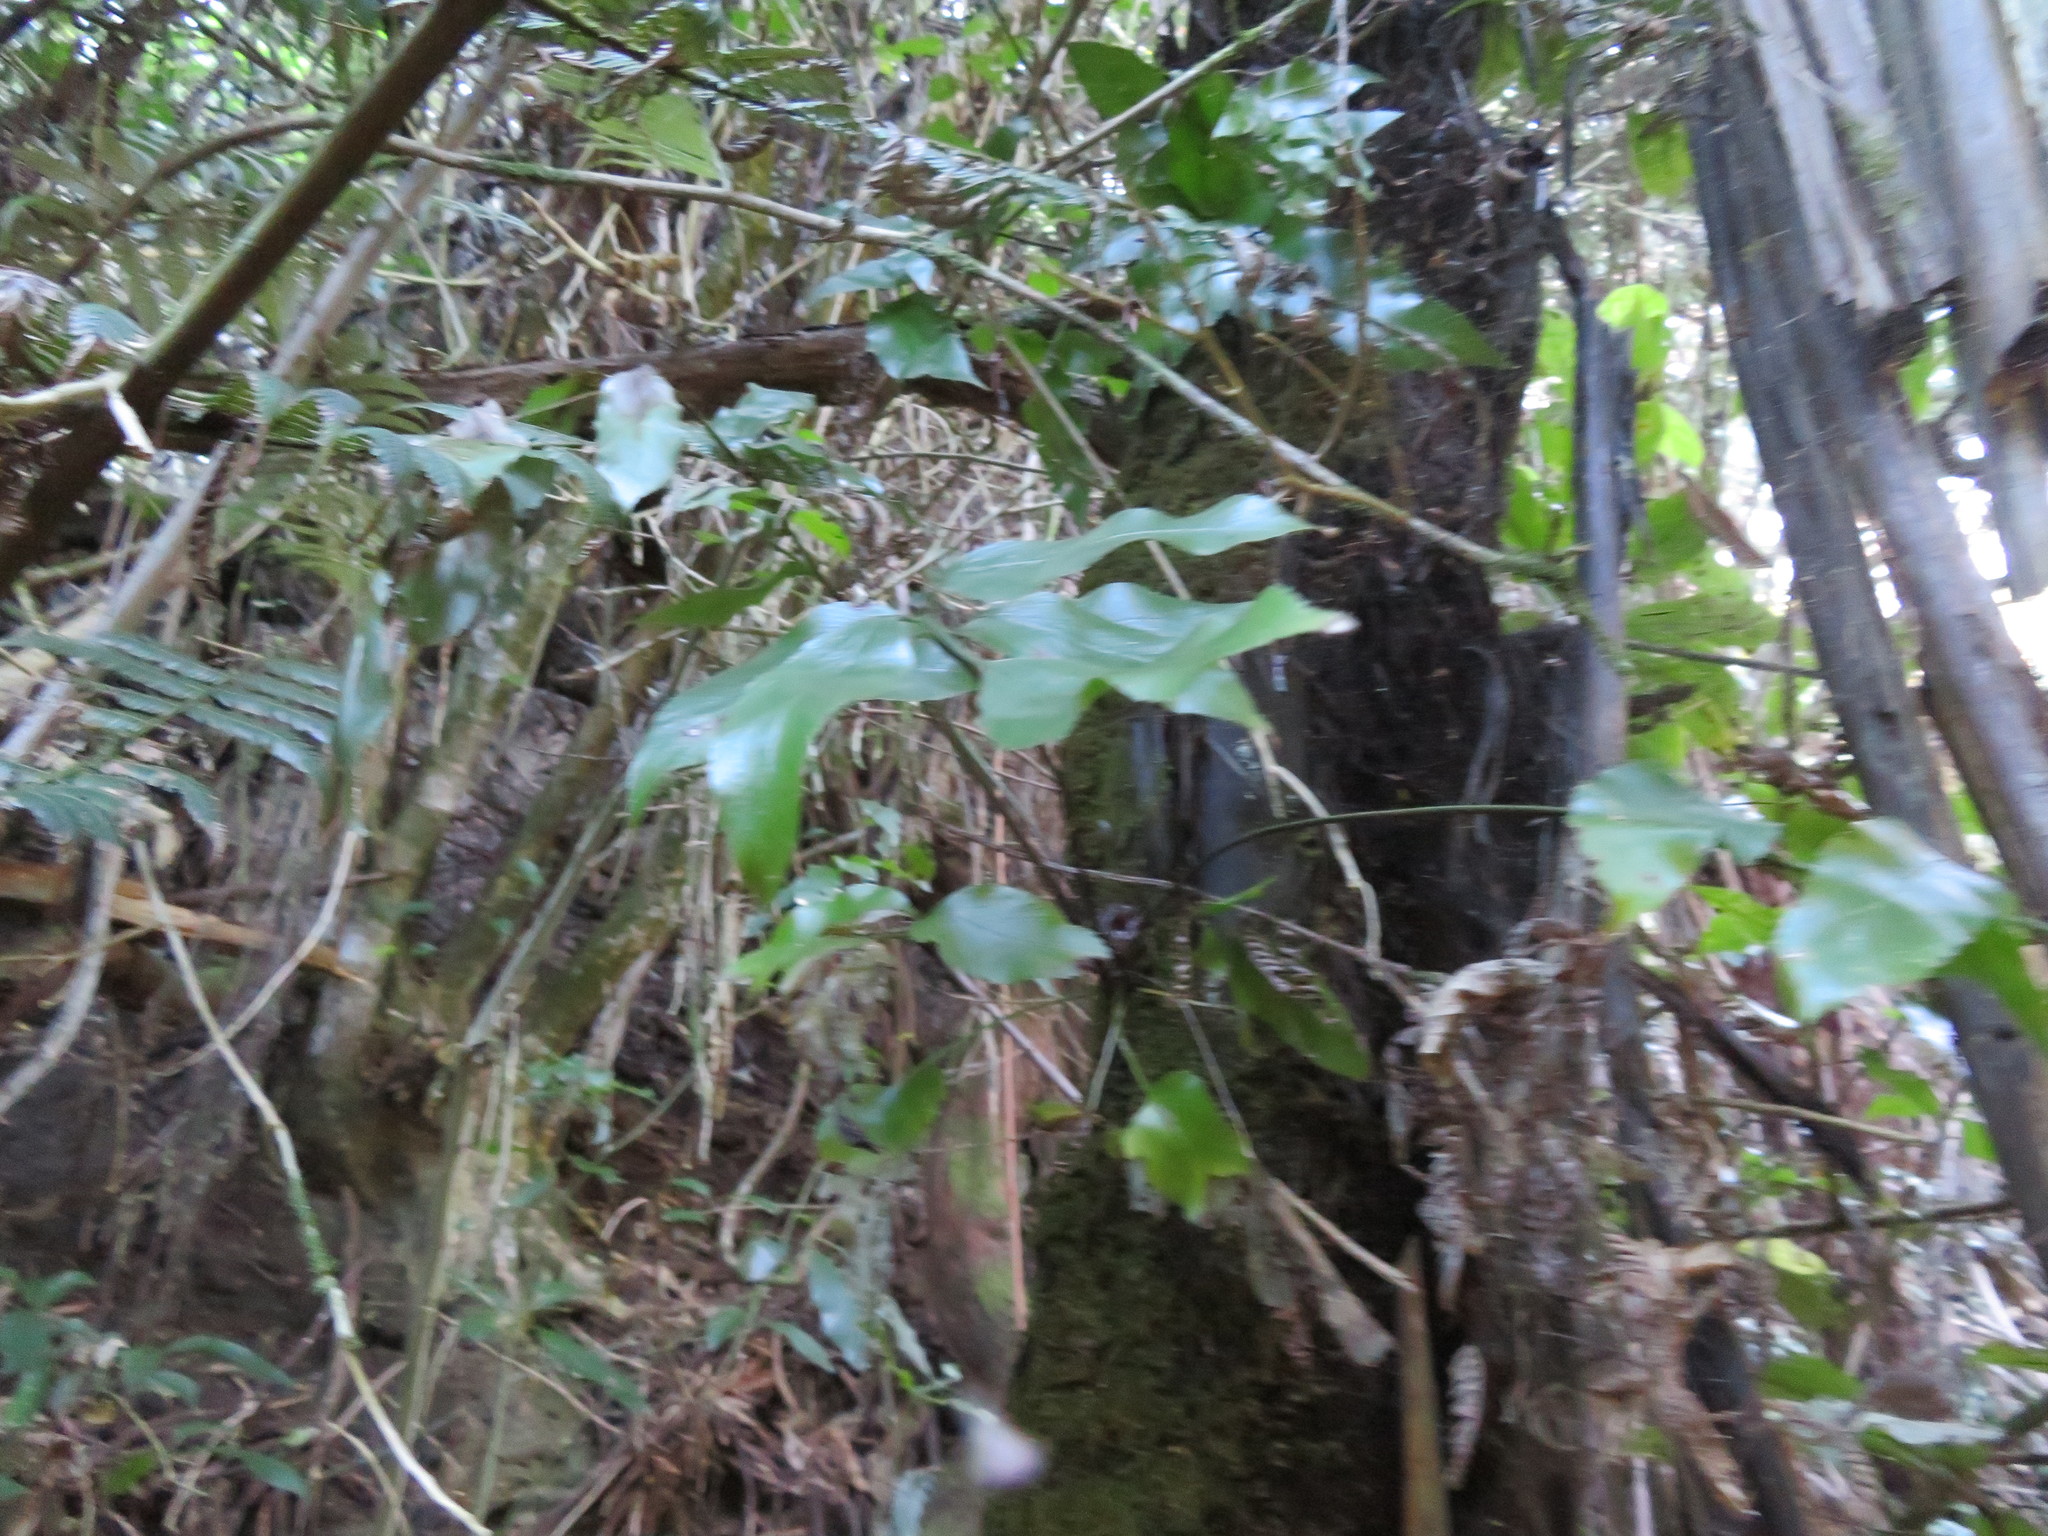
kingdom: Plantae
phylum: Tracheophyta
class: Polypodiopsida
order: Polypodiales
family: Aspleniaceae
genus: Asplenium
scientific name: Asplenium oblongifolium
